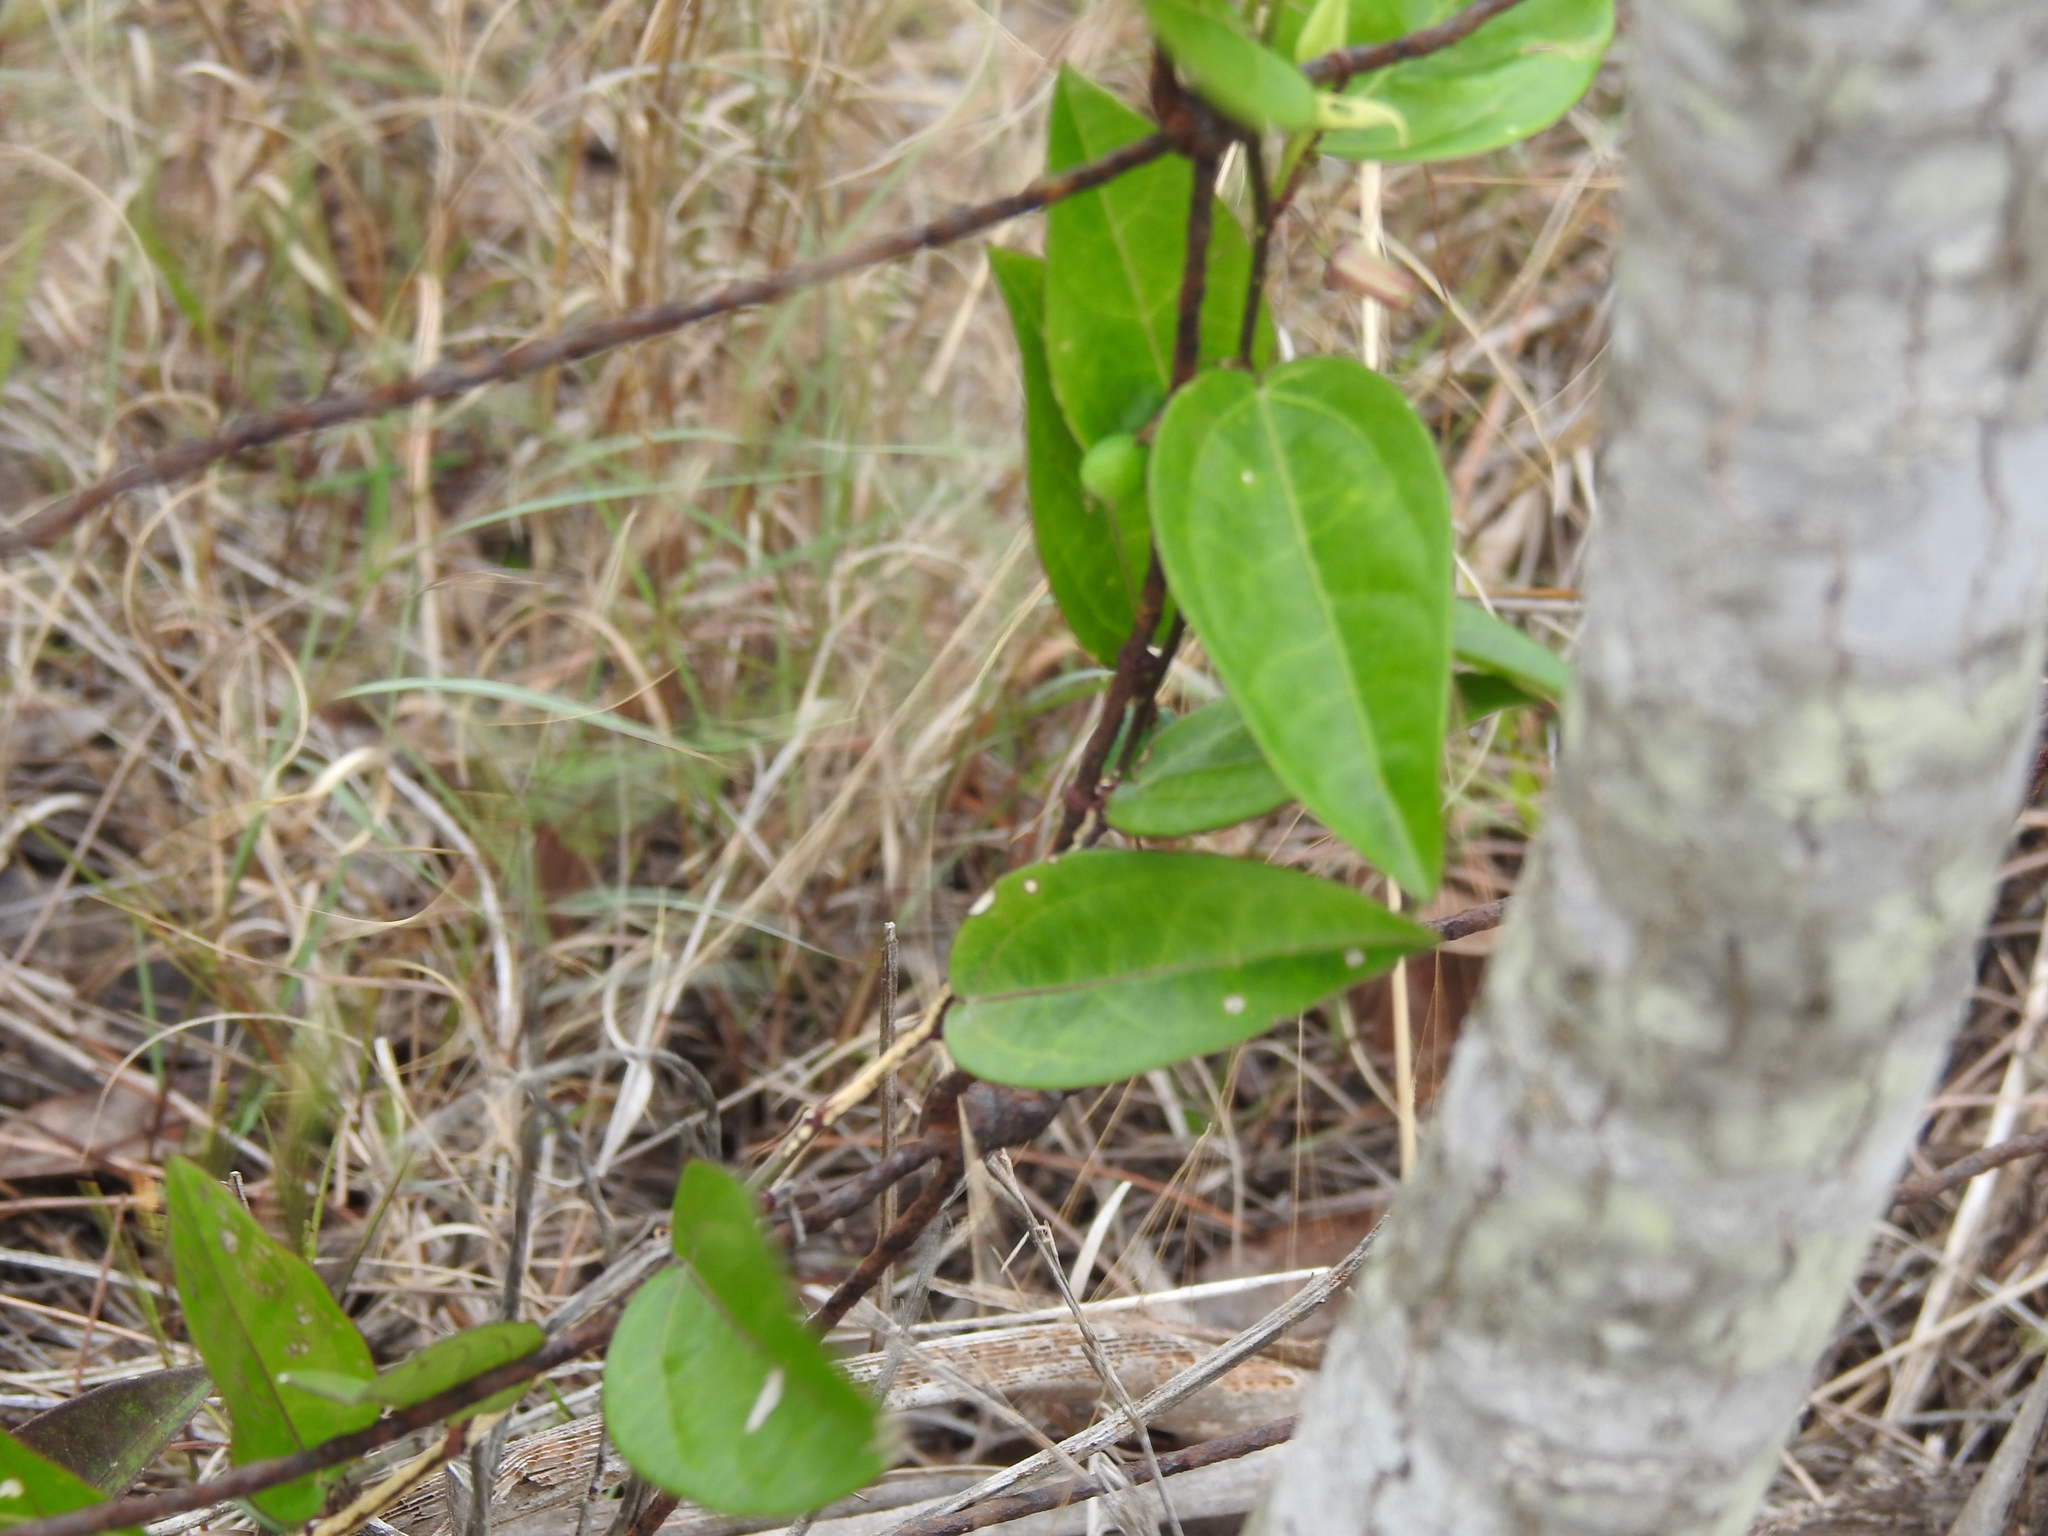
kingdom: Plantae
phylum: Tracheophyta
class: Magnoliopsida
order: Malpighiales
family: Passifloraceae
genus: Passiflora
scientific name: Passiflora pallida
